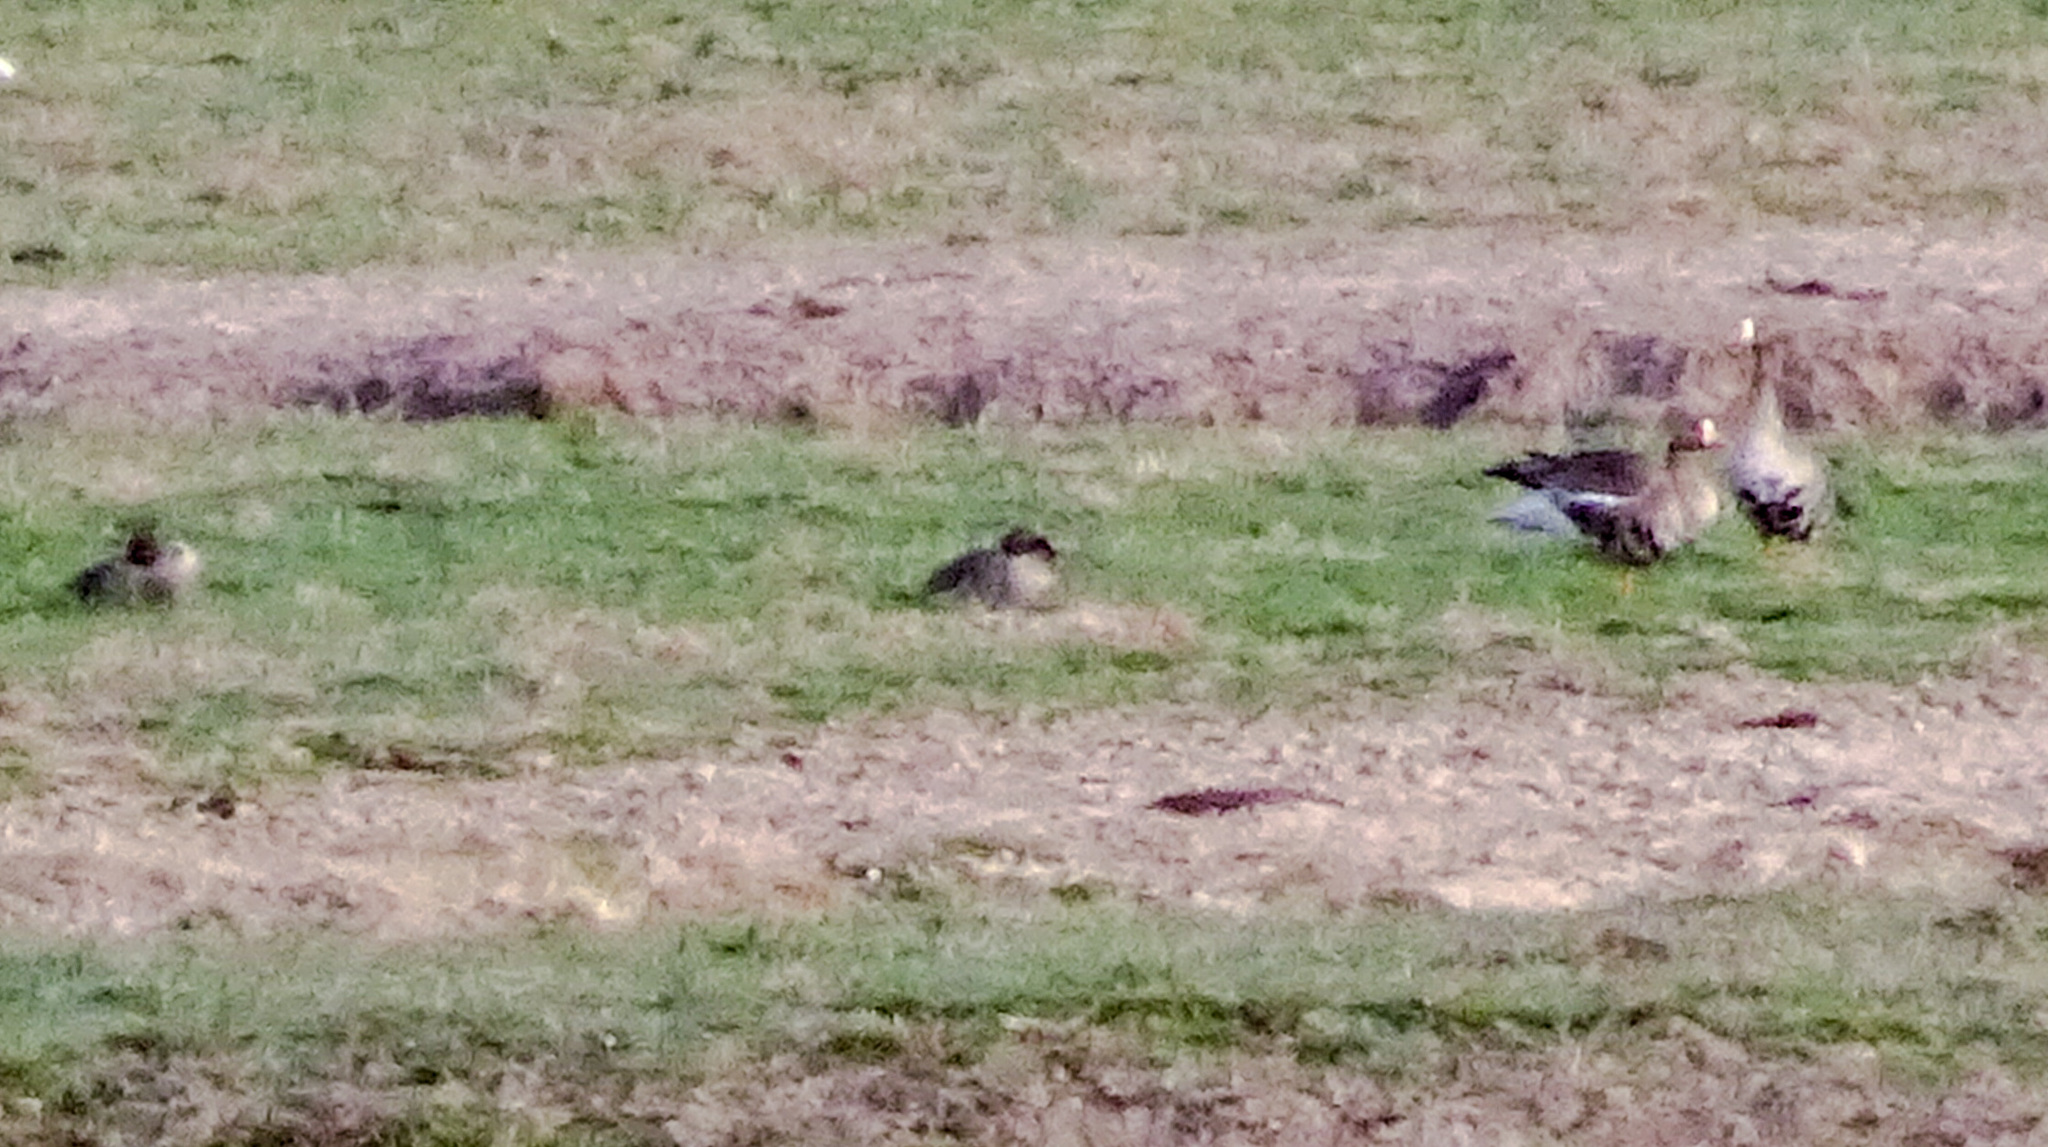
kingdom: Animalia
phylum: Chordata
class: Aves
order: Anseriformes
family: Anatidae
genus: Anser
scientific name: Anser albifrons
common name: Greater white-fronted goose
